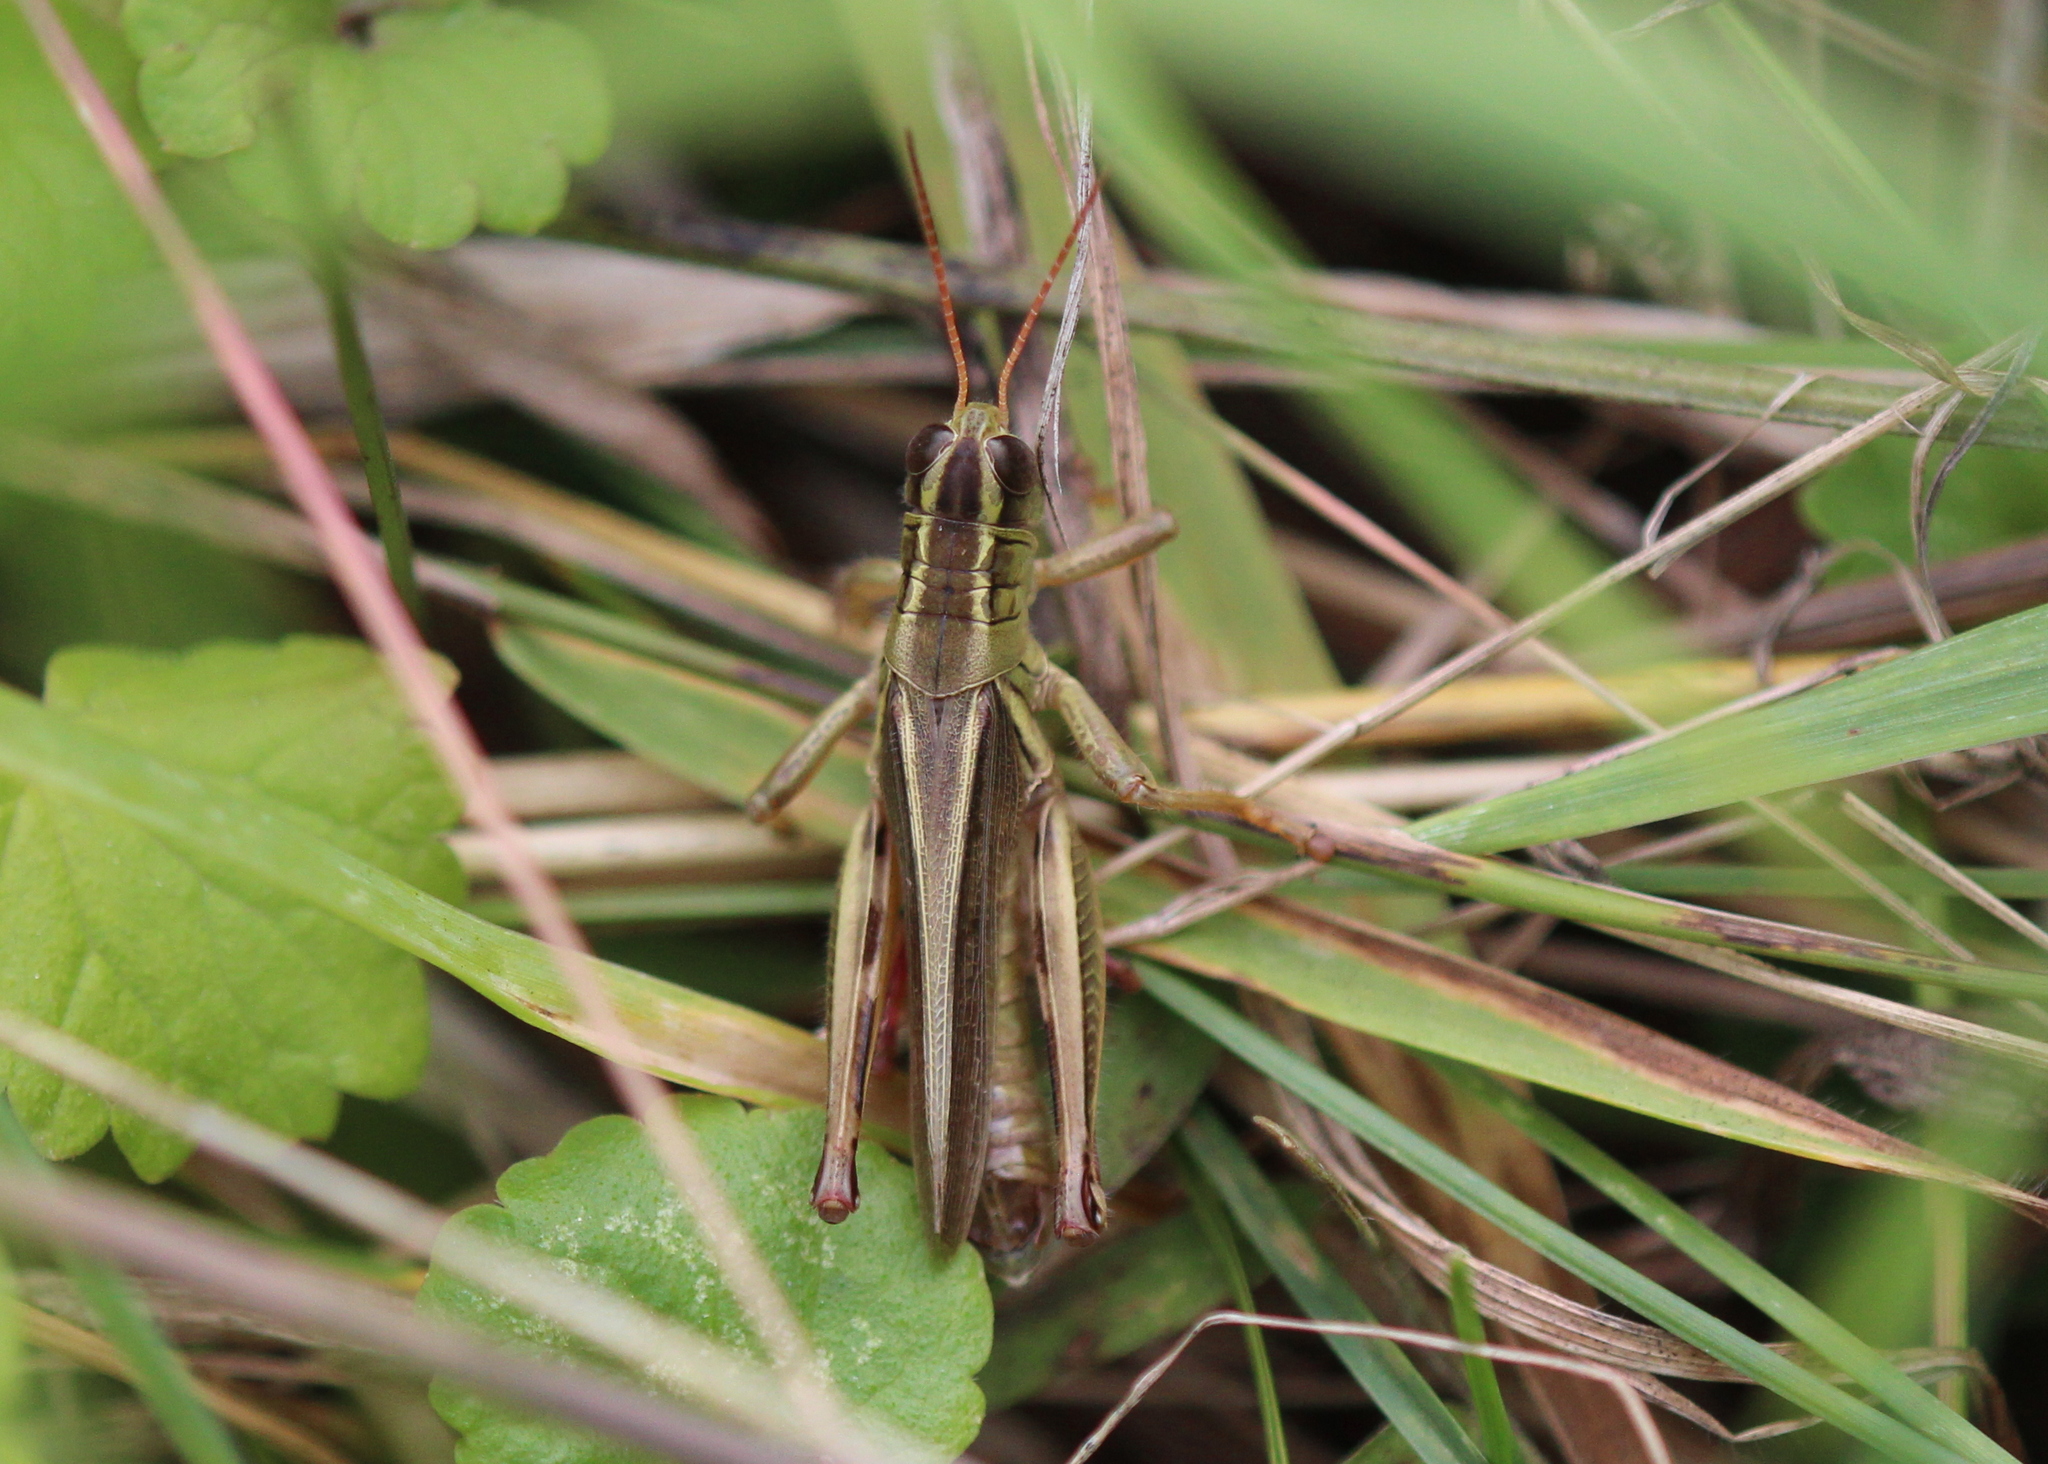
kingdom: Animalia
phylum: Arthropoda
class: Insecta
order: Orthoptera
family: Acrididae
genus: Melanoplus
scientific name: Melanoplus bivittatus
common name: Two-striped grasshopper
